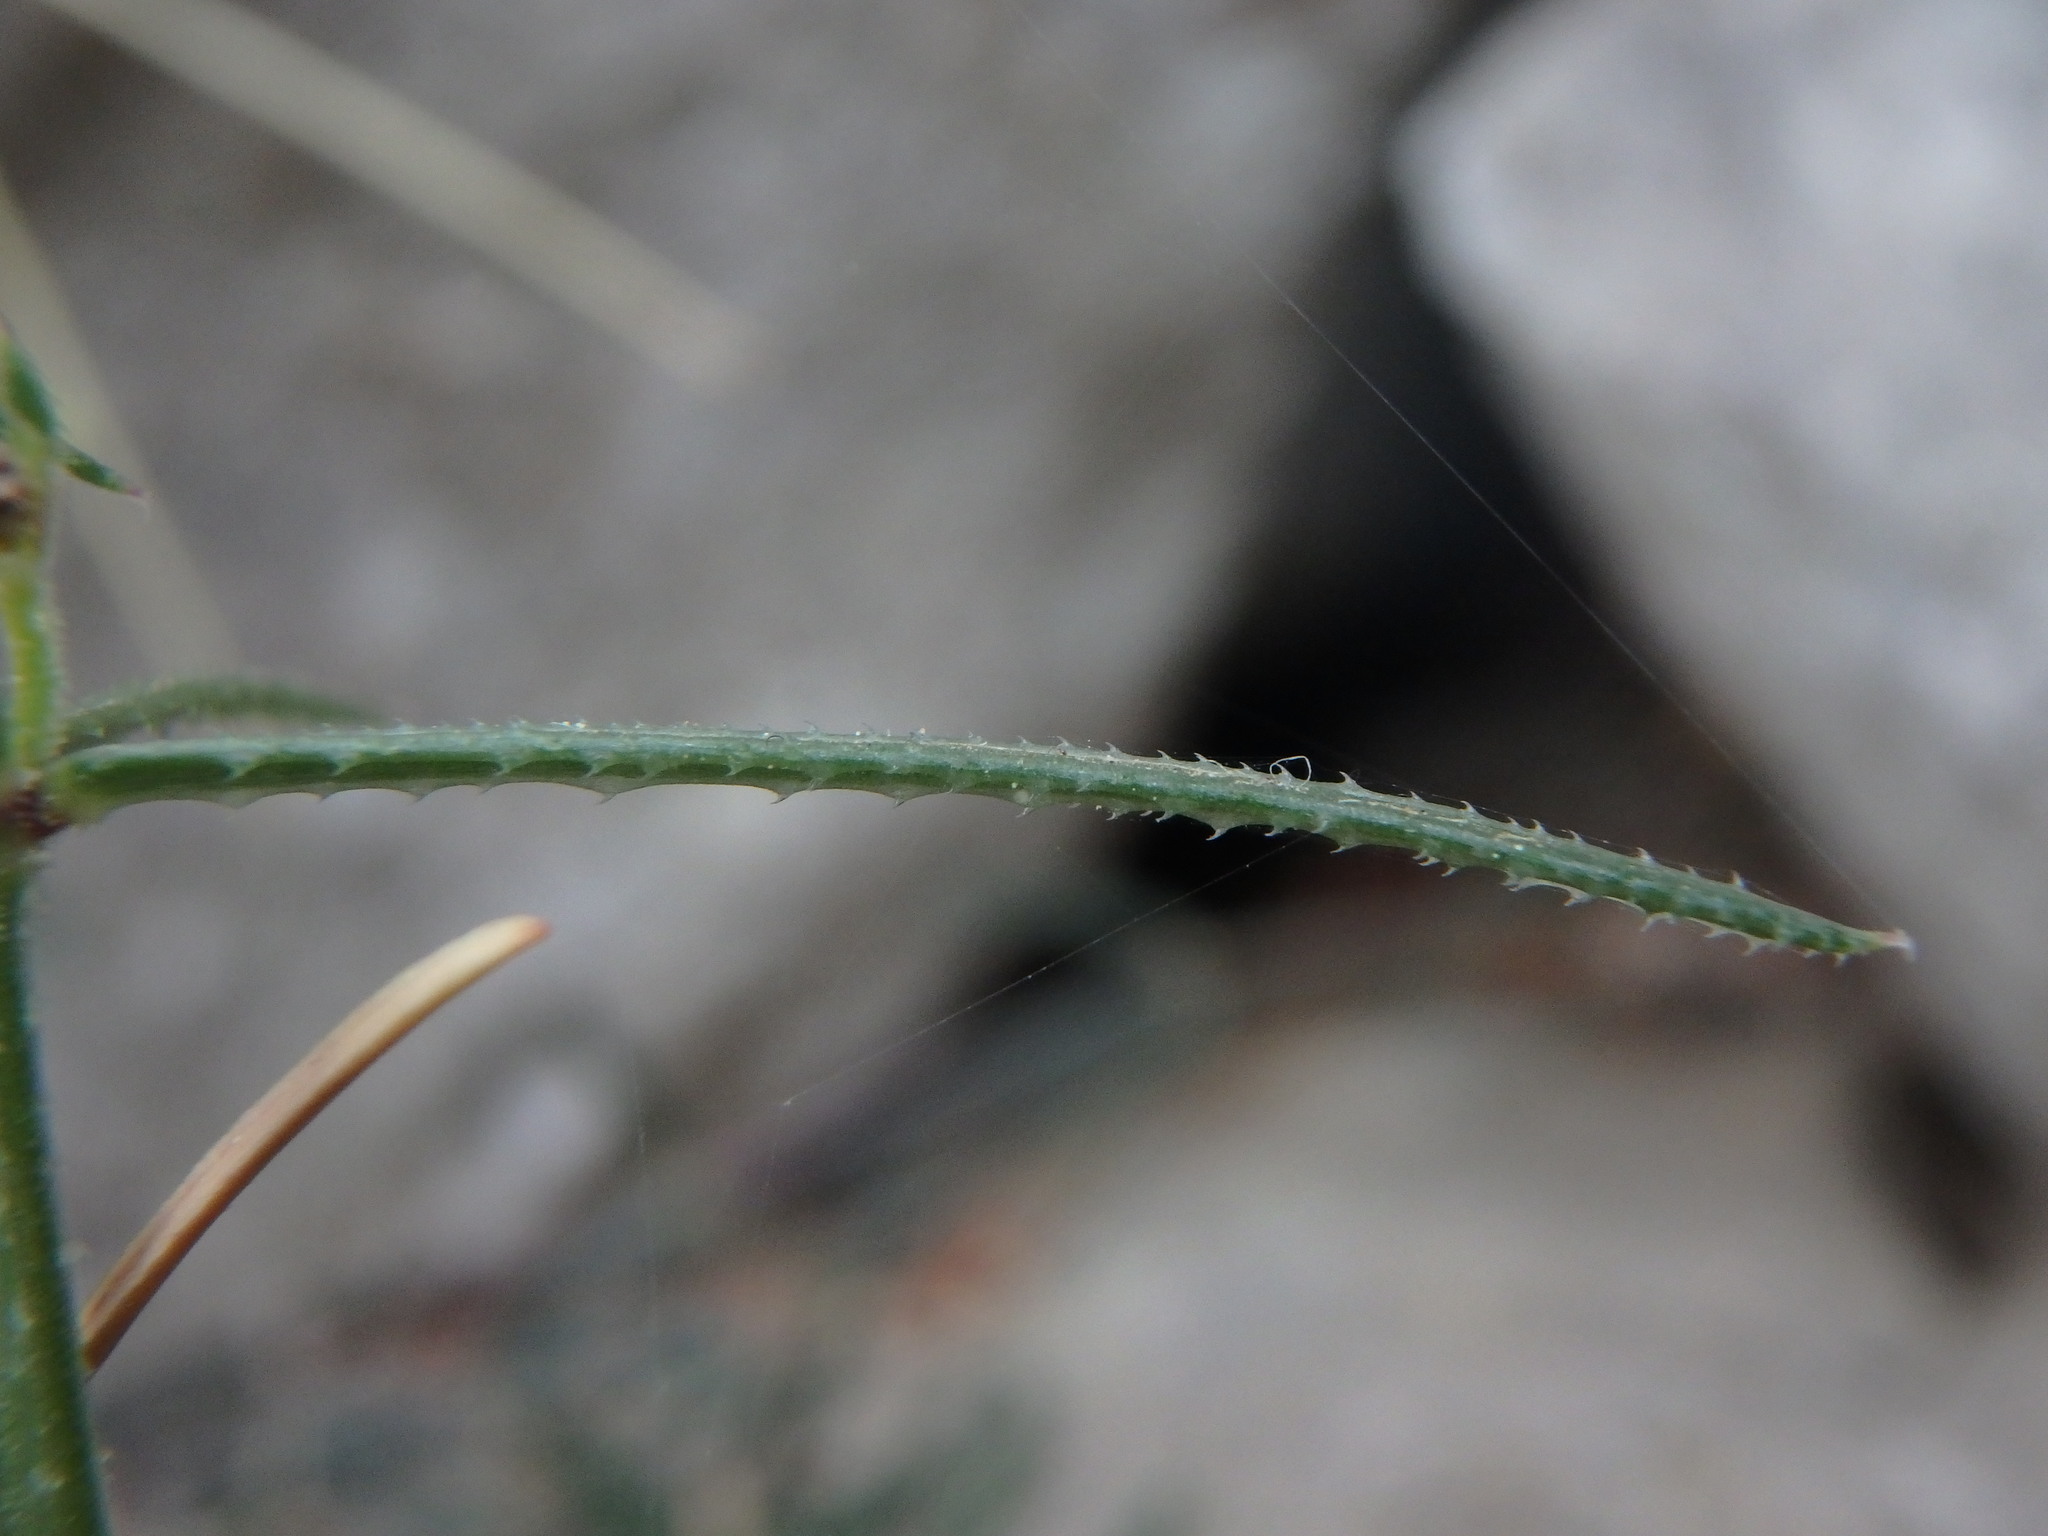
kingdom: Plantae
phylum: Tracheophyta
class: Magnoliopsida
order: Gentianales
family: Rubiaceae
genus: Rubia
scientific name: Rubia balearica
